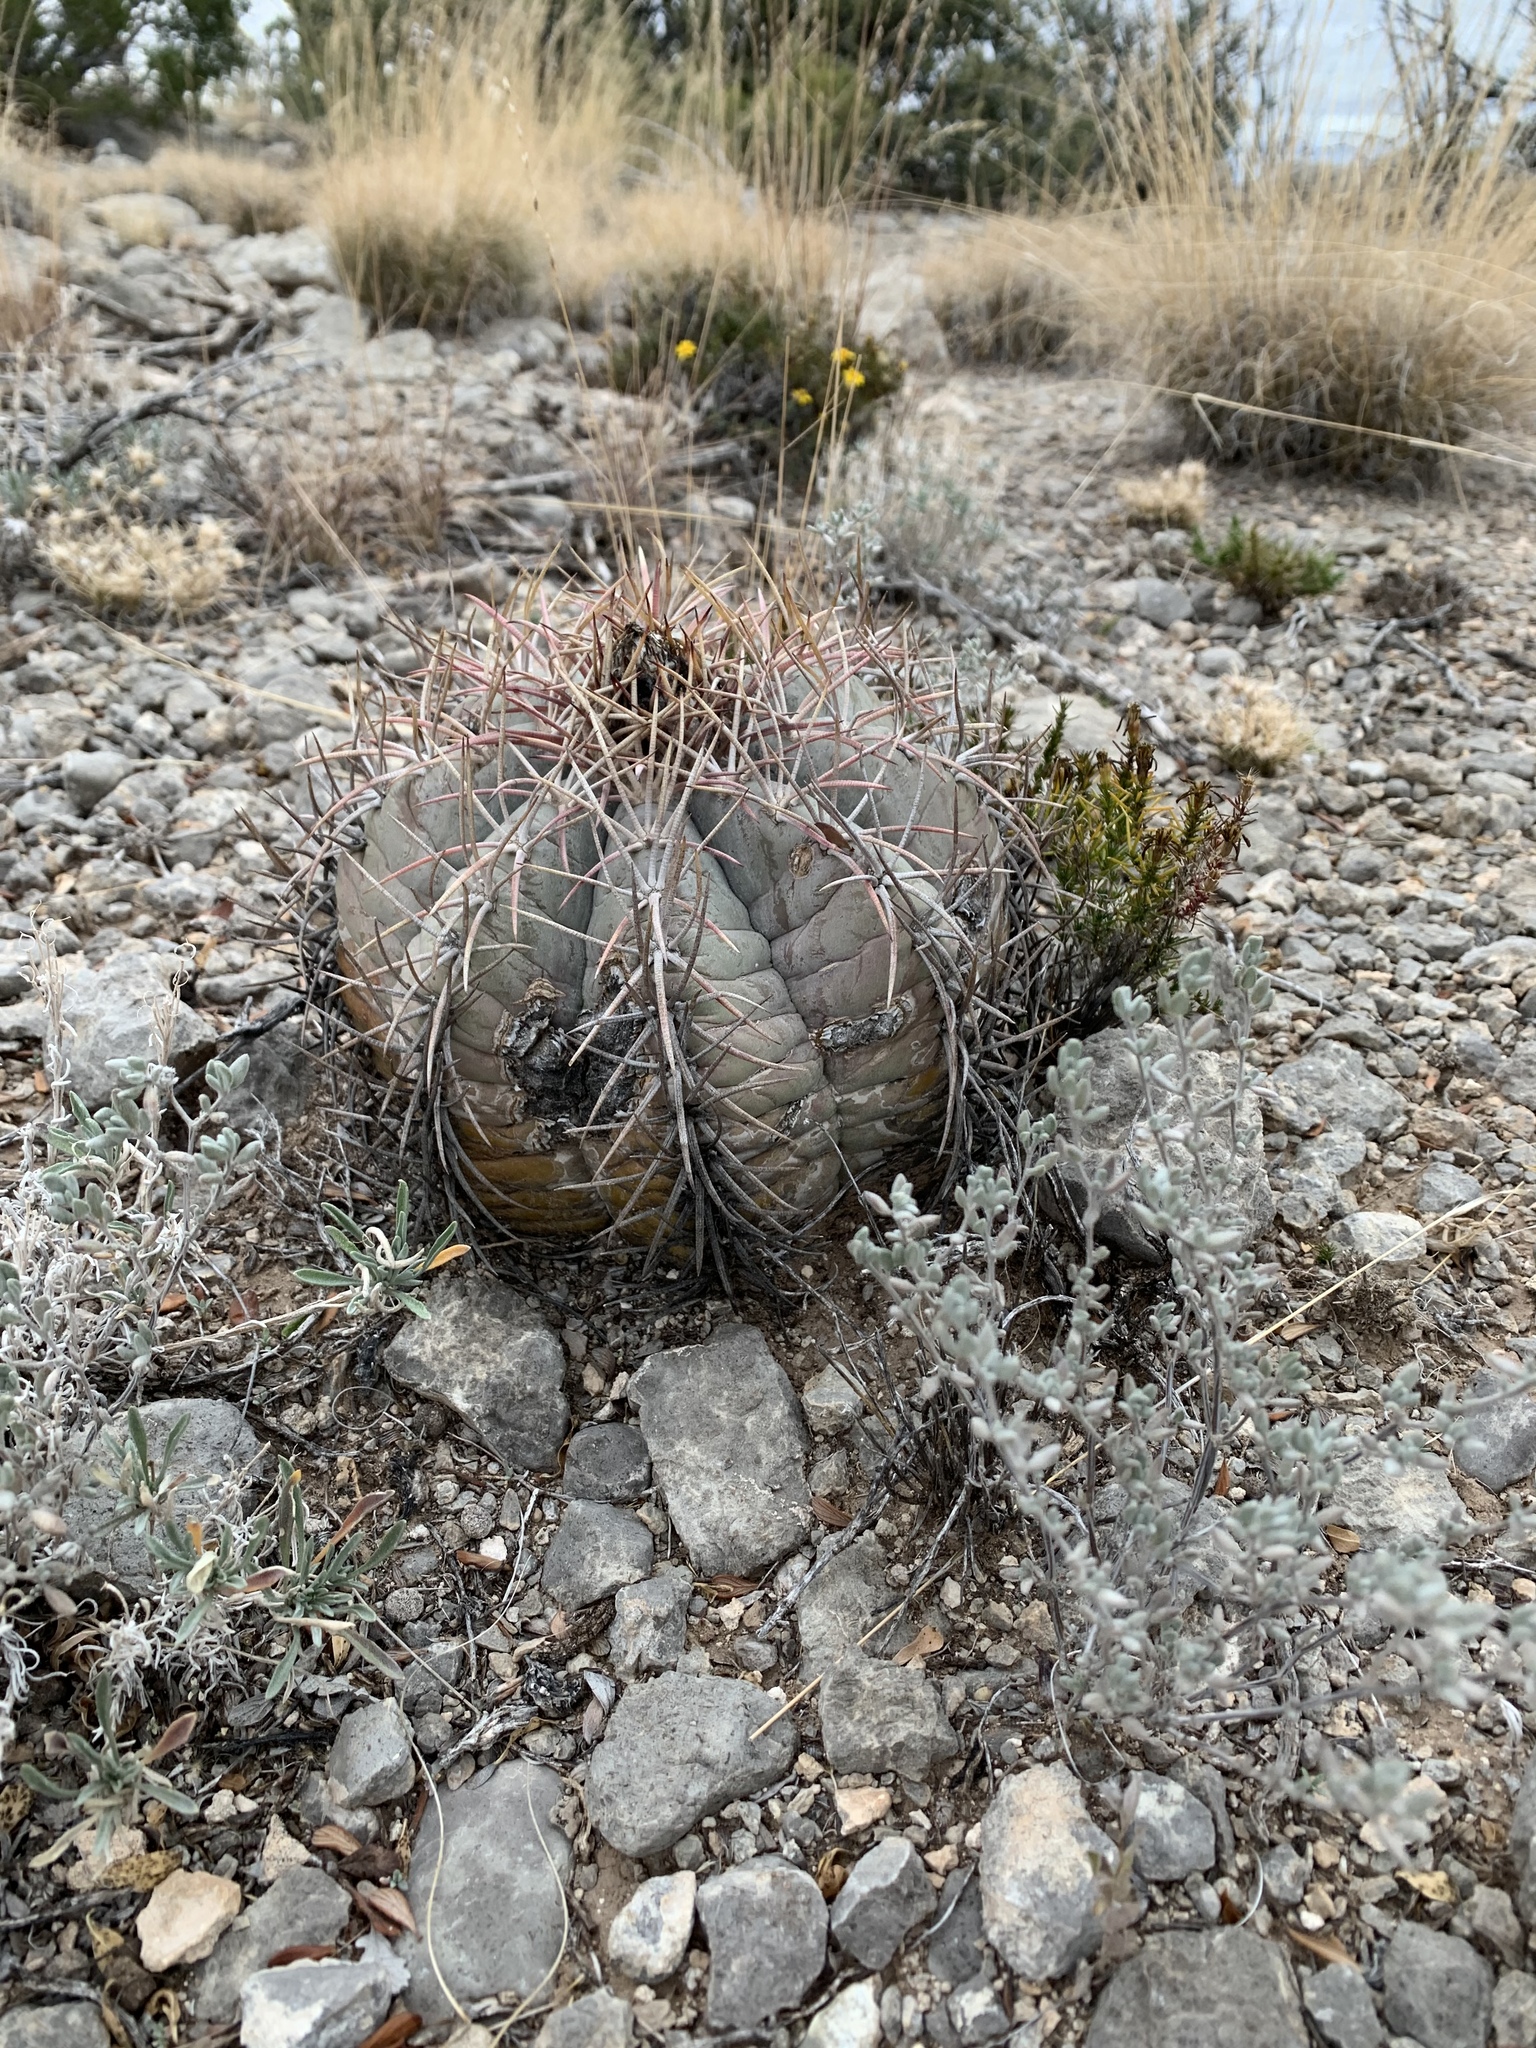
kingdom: Plantae
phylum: Tracheophyta
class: Magnoliopsida
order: Caryophyllales
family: Cactaceae
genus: Echinocactus
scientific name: Echinocactus horizonthalonius
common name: Devilshead
